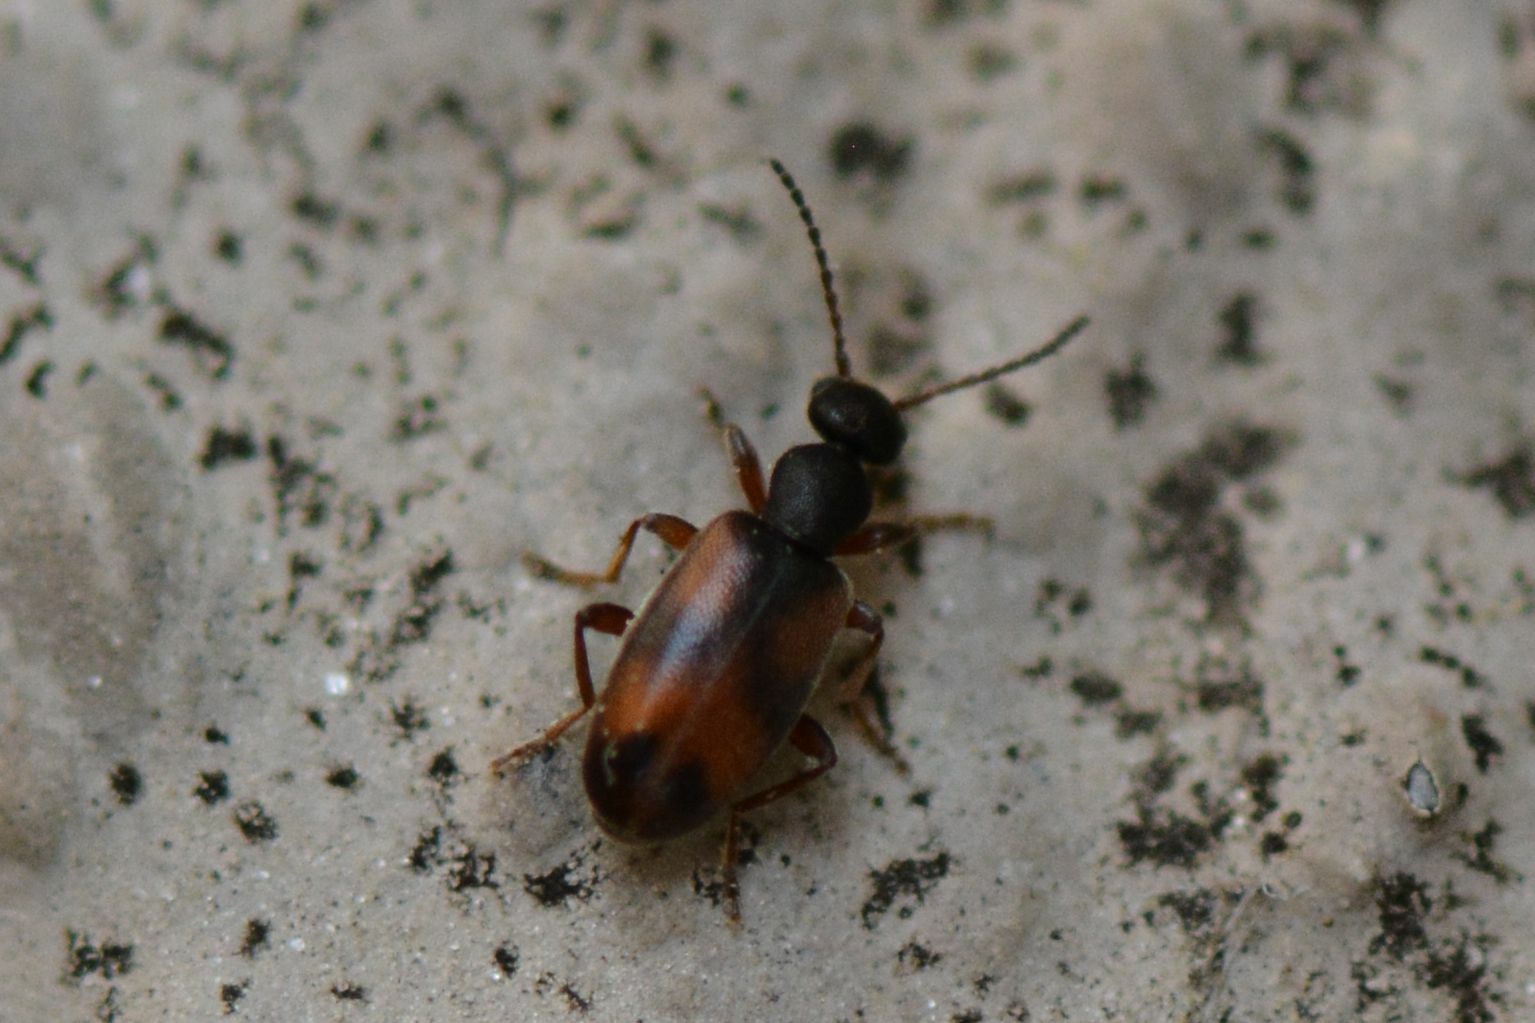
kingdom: Animalia
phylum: Arthropoda
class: Insecta
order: Coleoptera
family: Anthicidae
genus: Anthicus
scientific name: Anthicus antherinus
